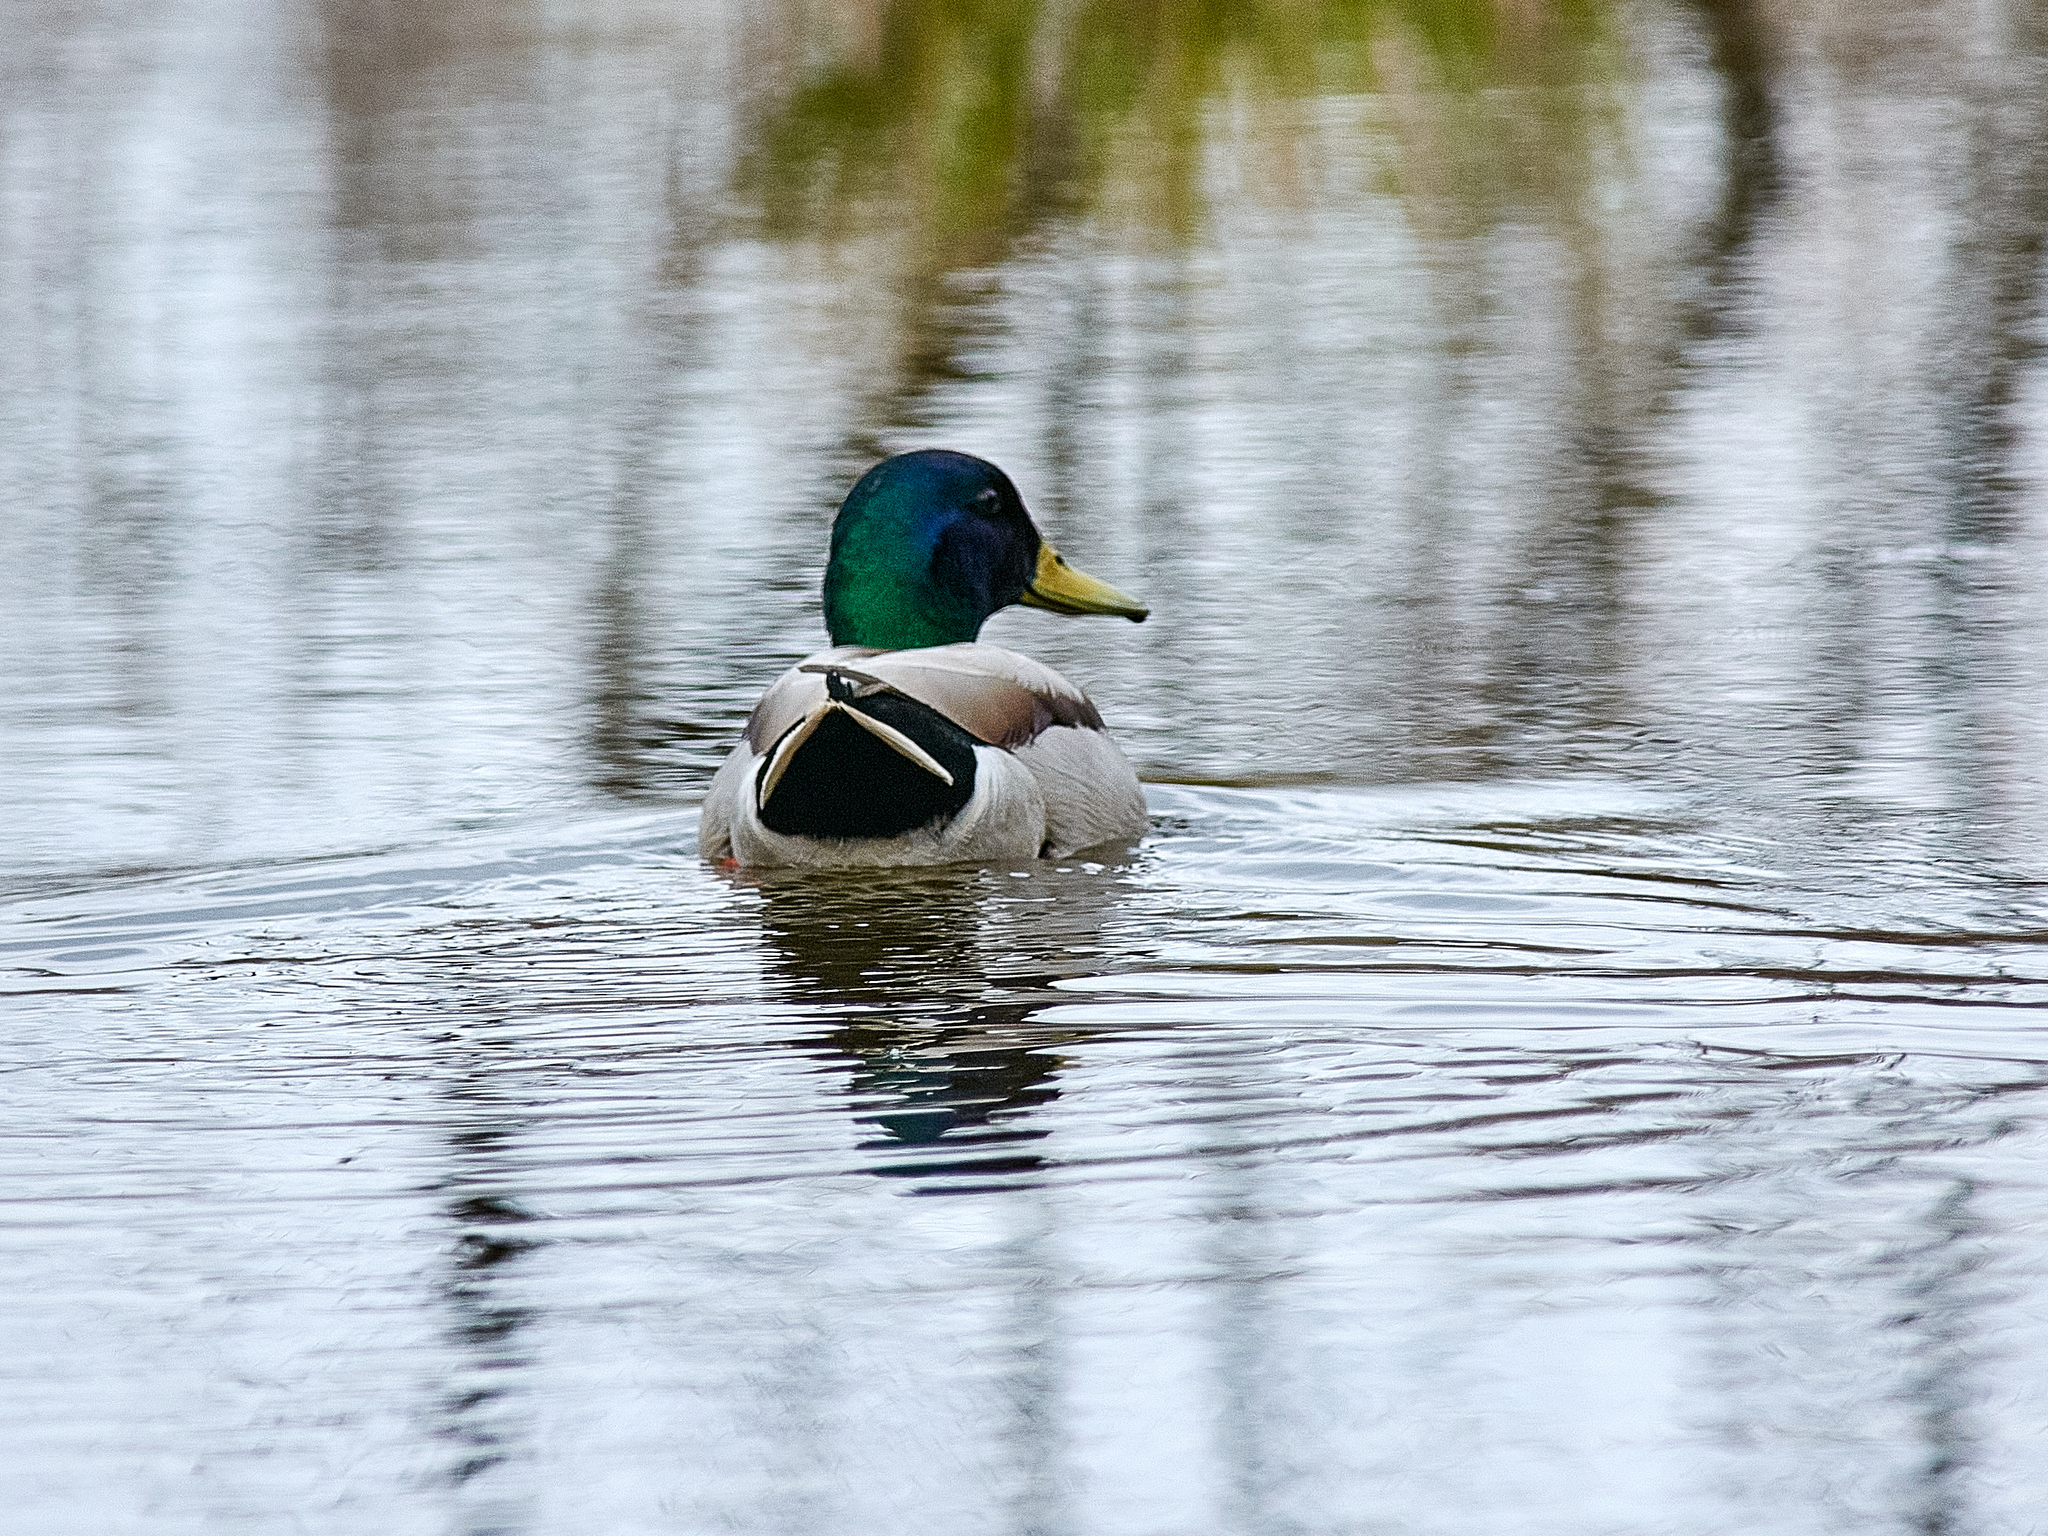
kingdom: Animalia
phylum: Chordata
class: Aves
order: Anseriformes
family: Anatidae
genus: Anas
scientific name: Anas platyrhynchos
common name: Mallard
